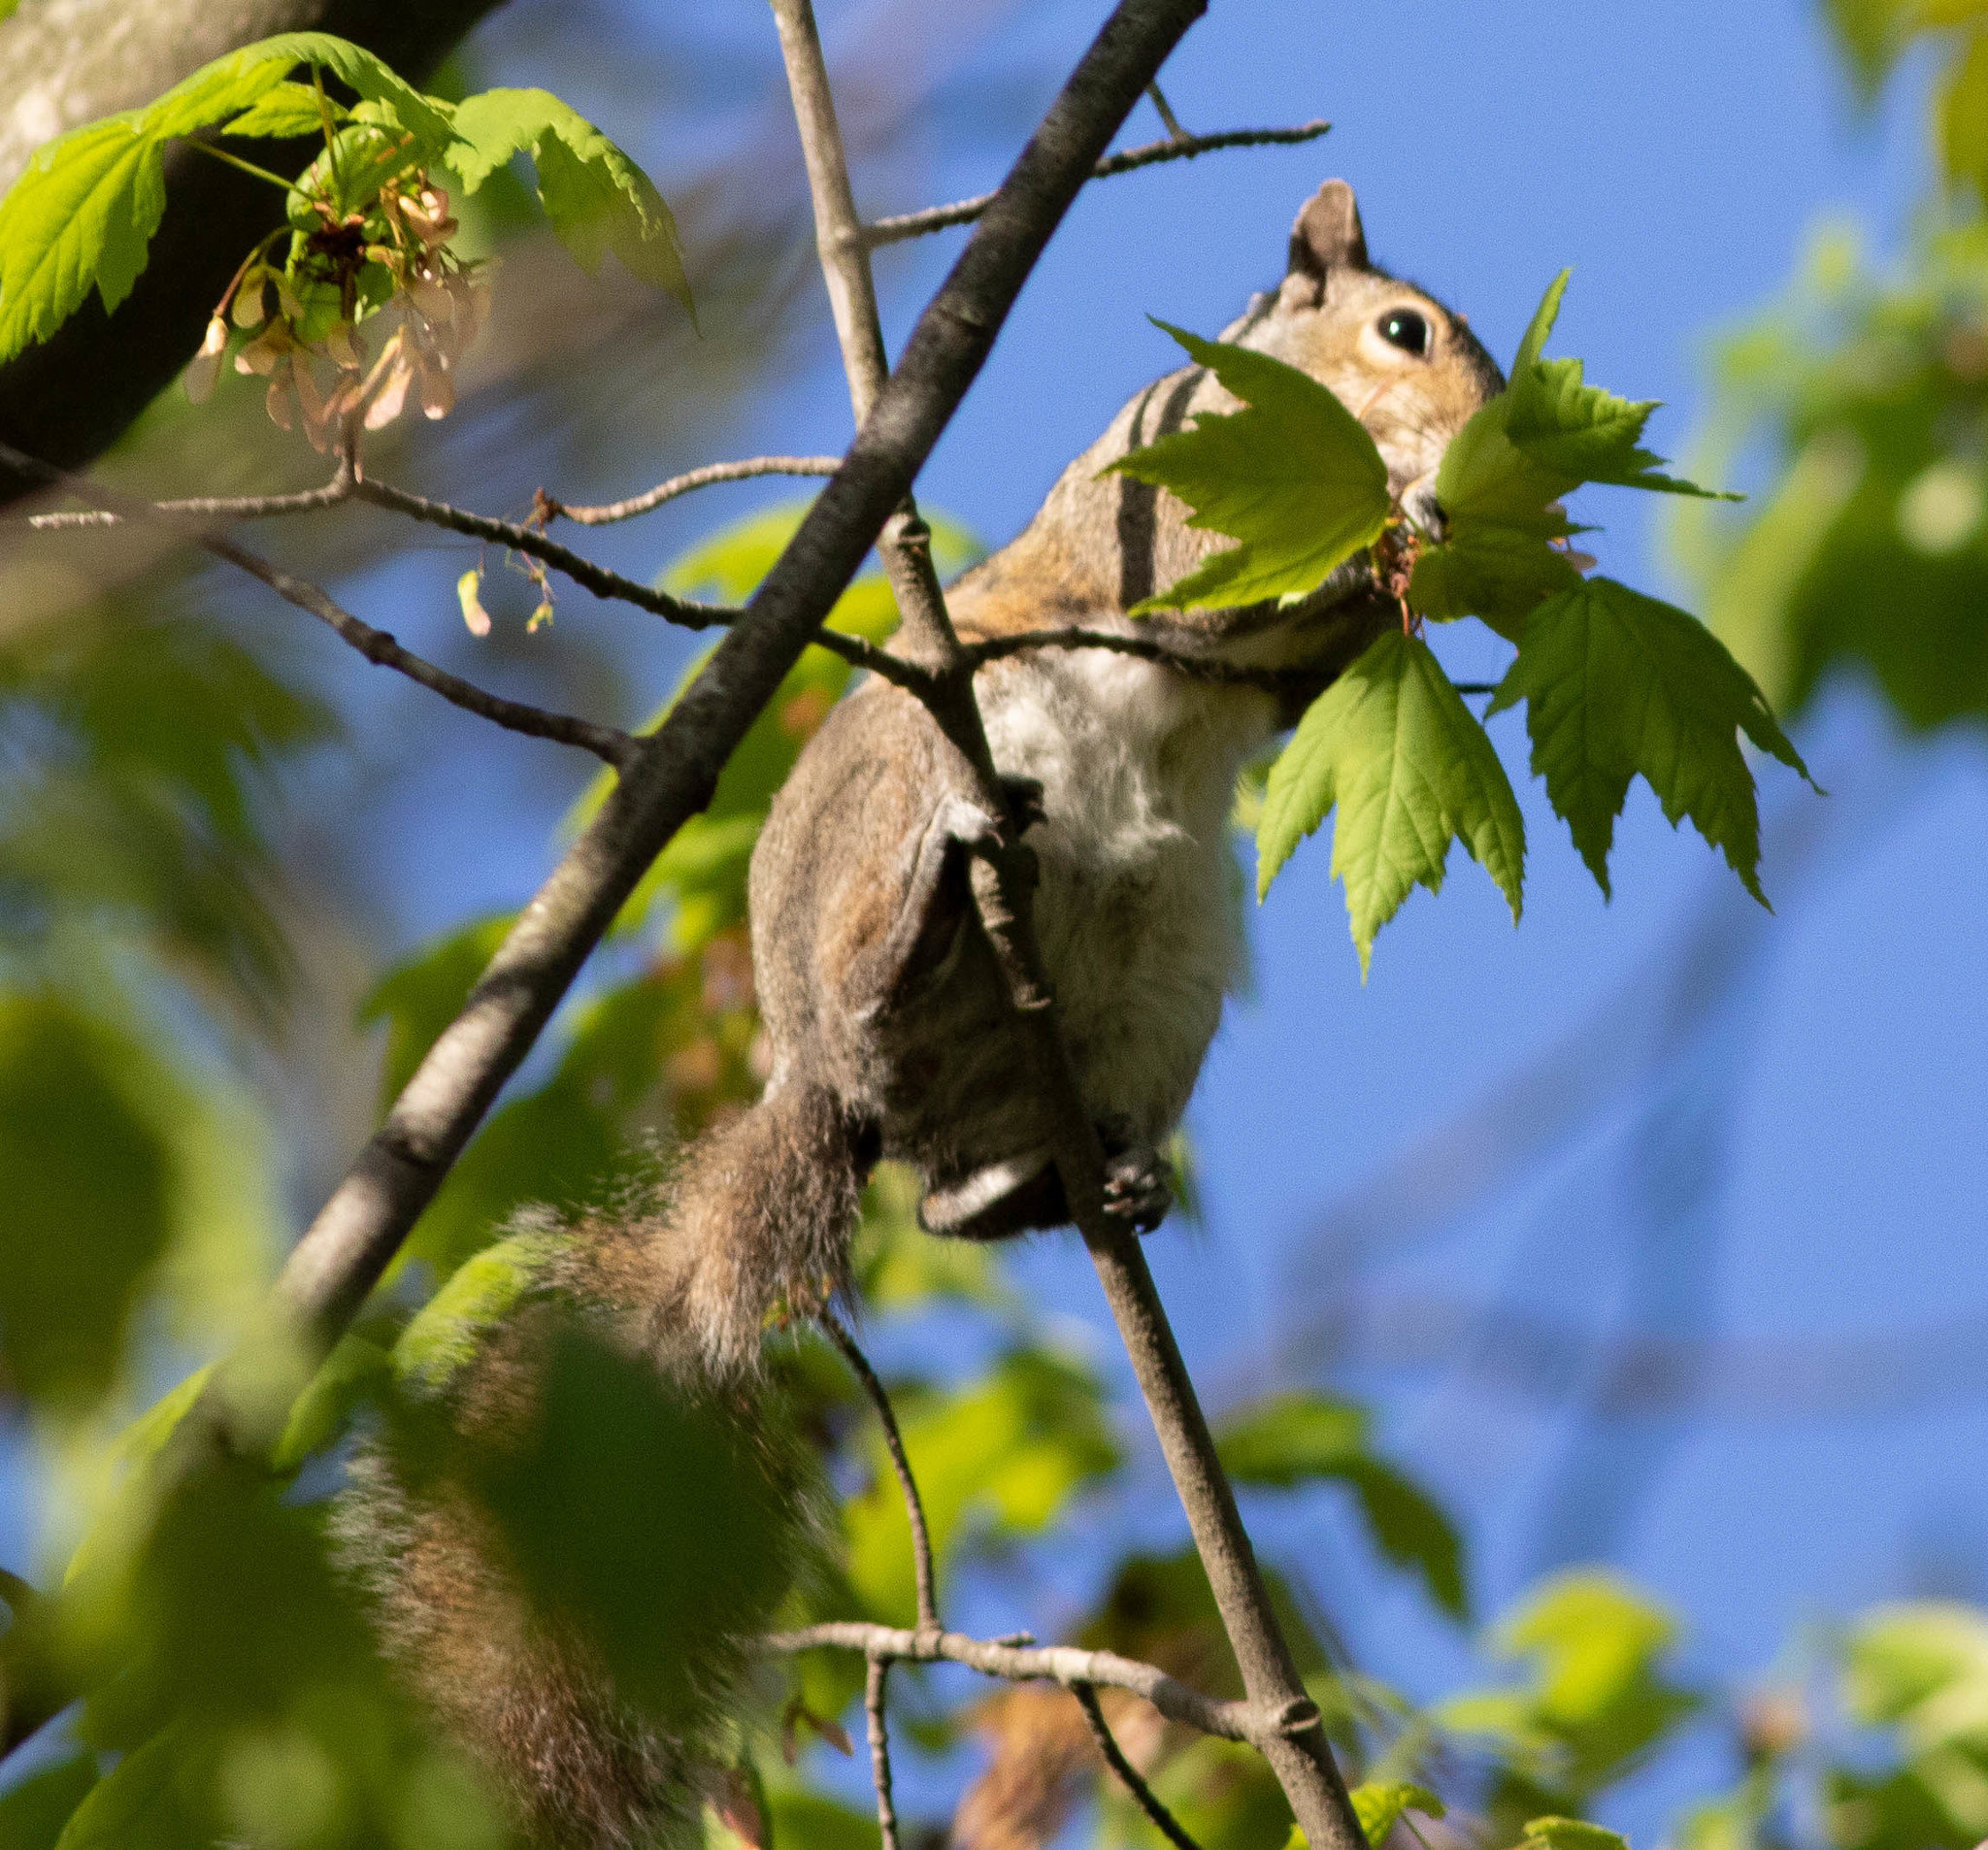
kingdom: Animalia
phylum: Chordata
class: Mammalia
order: Rodentia
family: Sciuridae
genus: Sciurus
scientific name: Sciurus carolinensis
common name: Eastern gray squirrel
